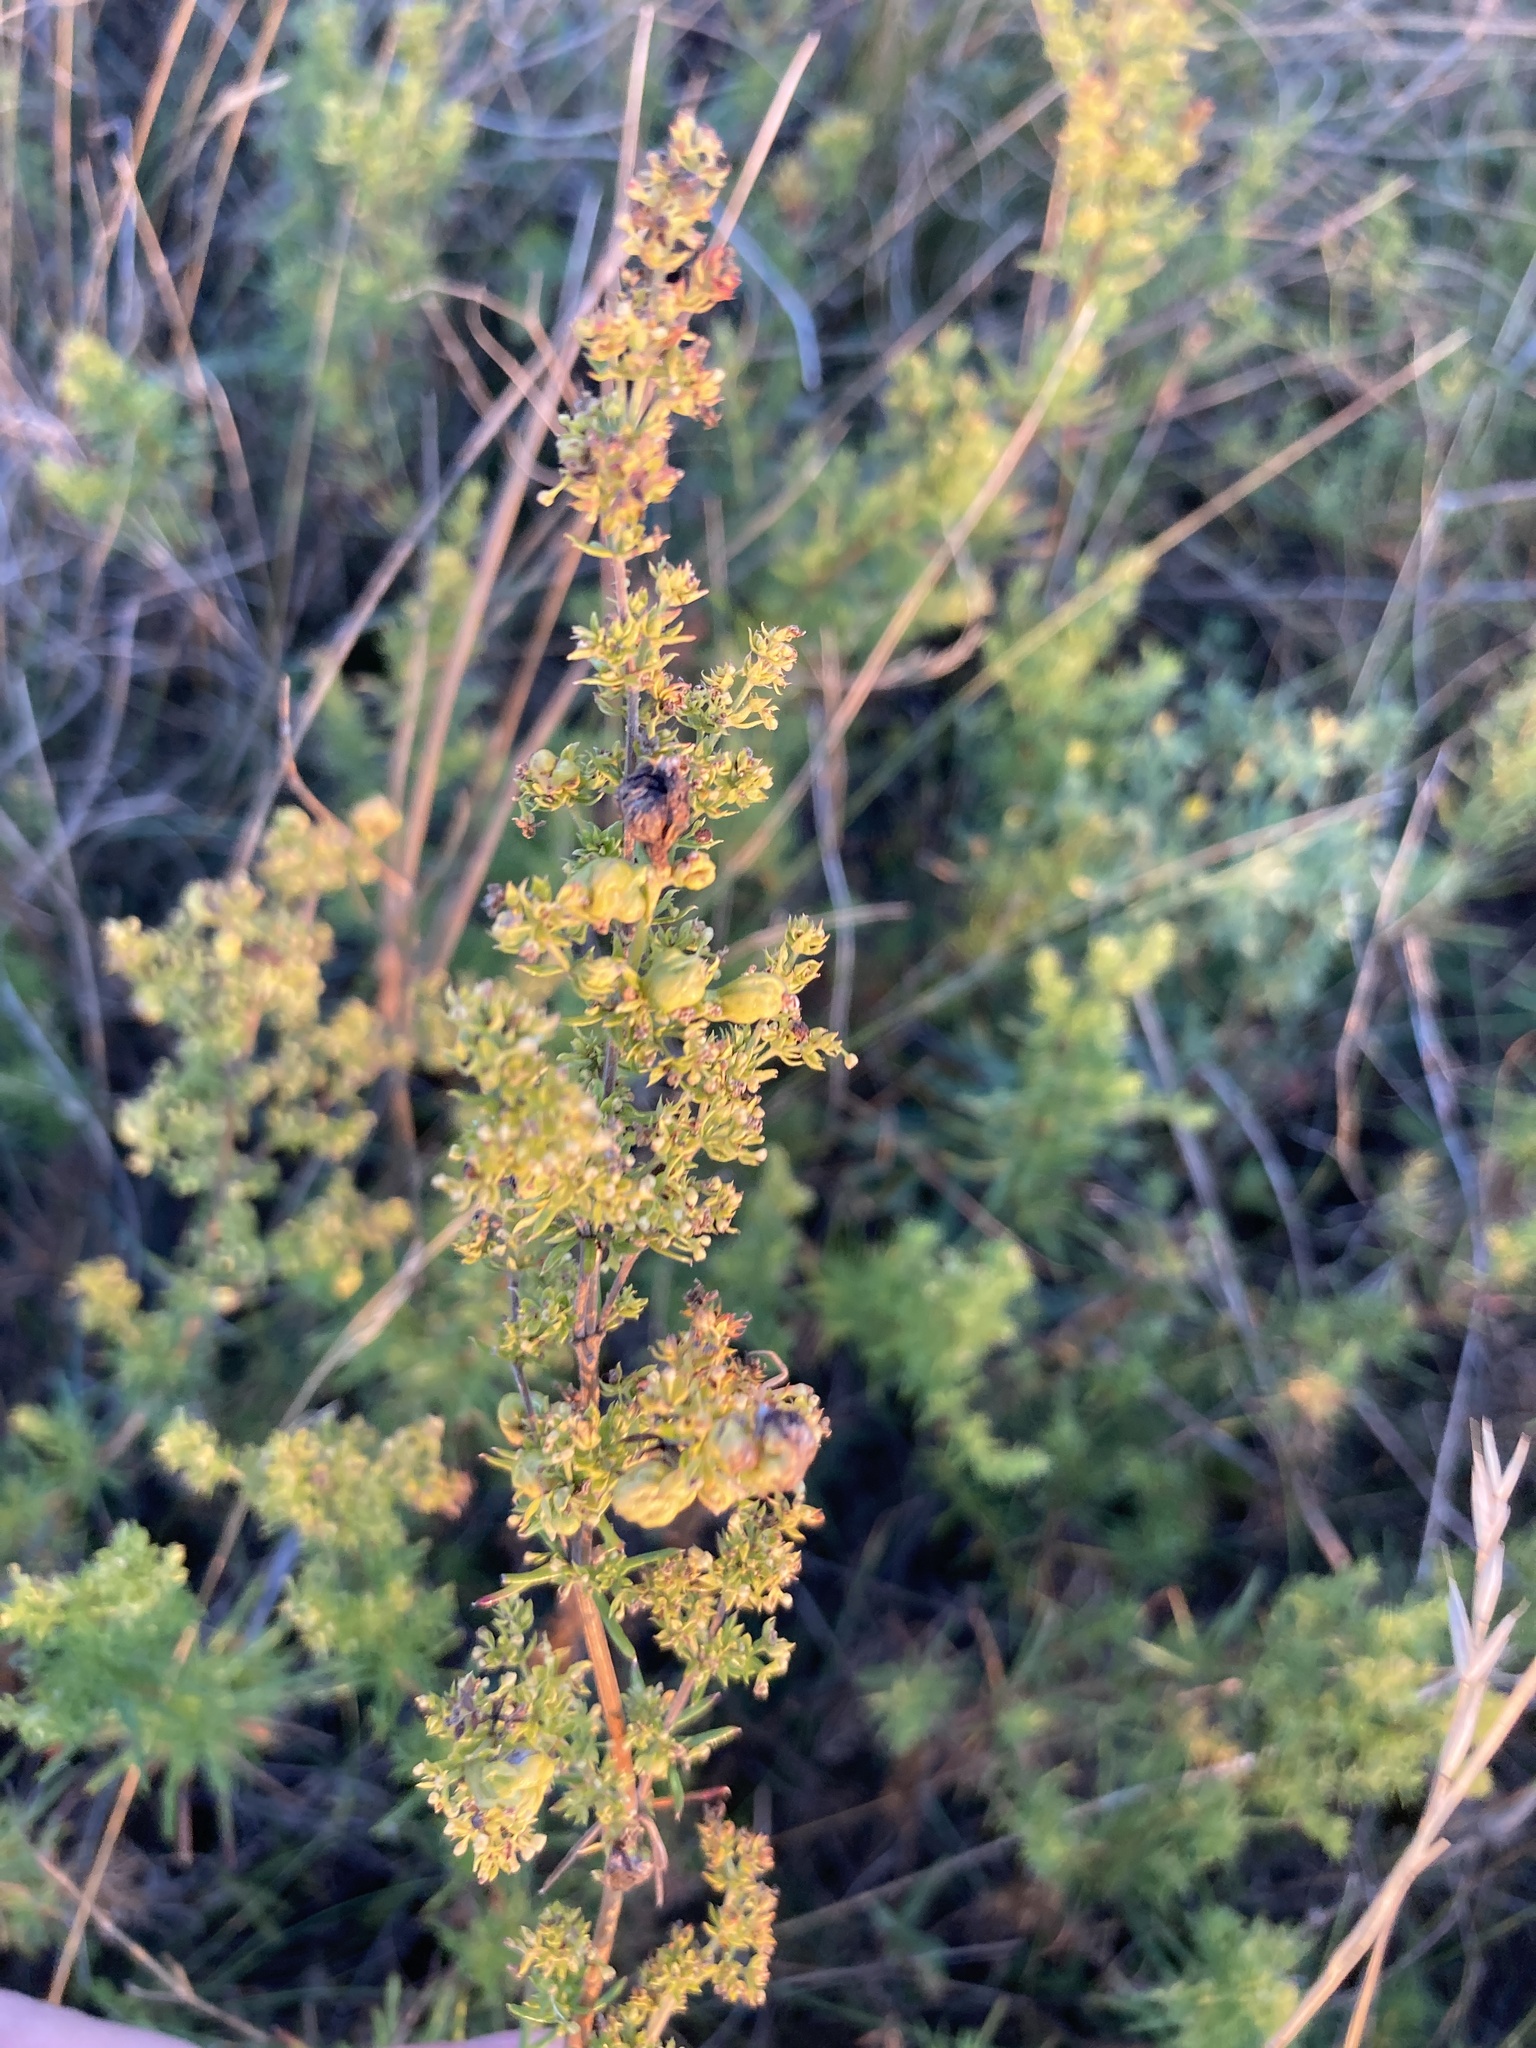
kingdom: Plantae
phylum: Tracheophyta
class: Magnoliopsida
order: Gentianales
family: Rubiaceae
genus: Galium
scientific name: Galium verum
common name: Lady's bedstraw
